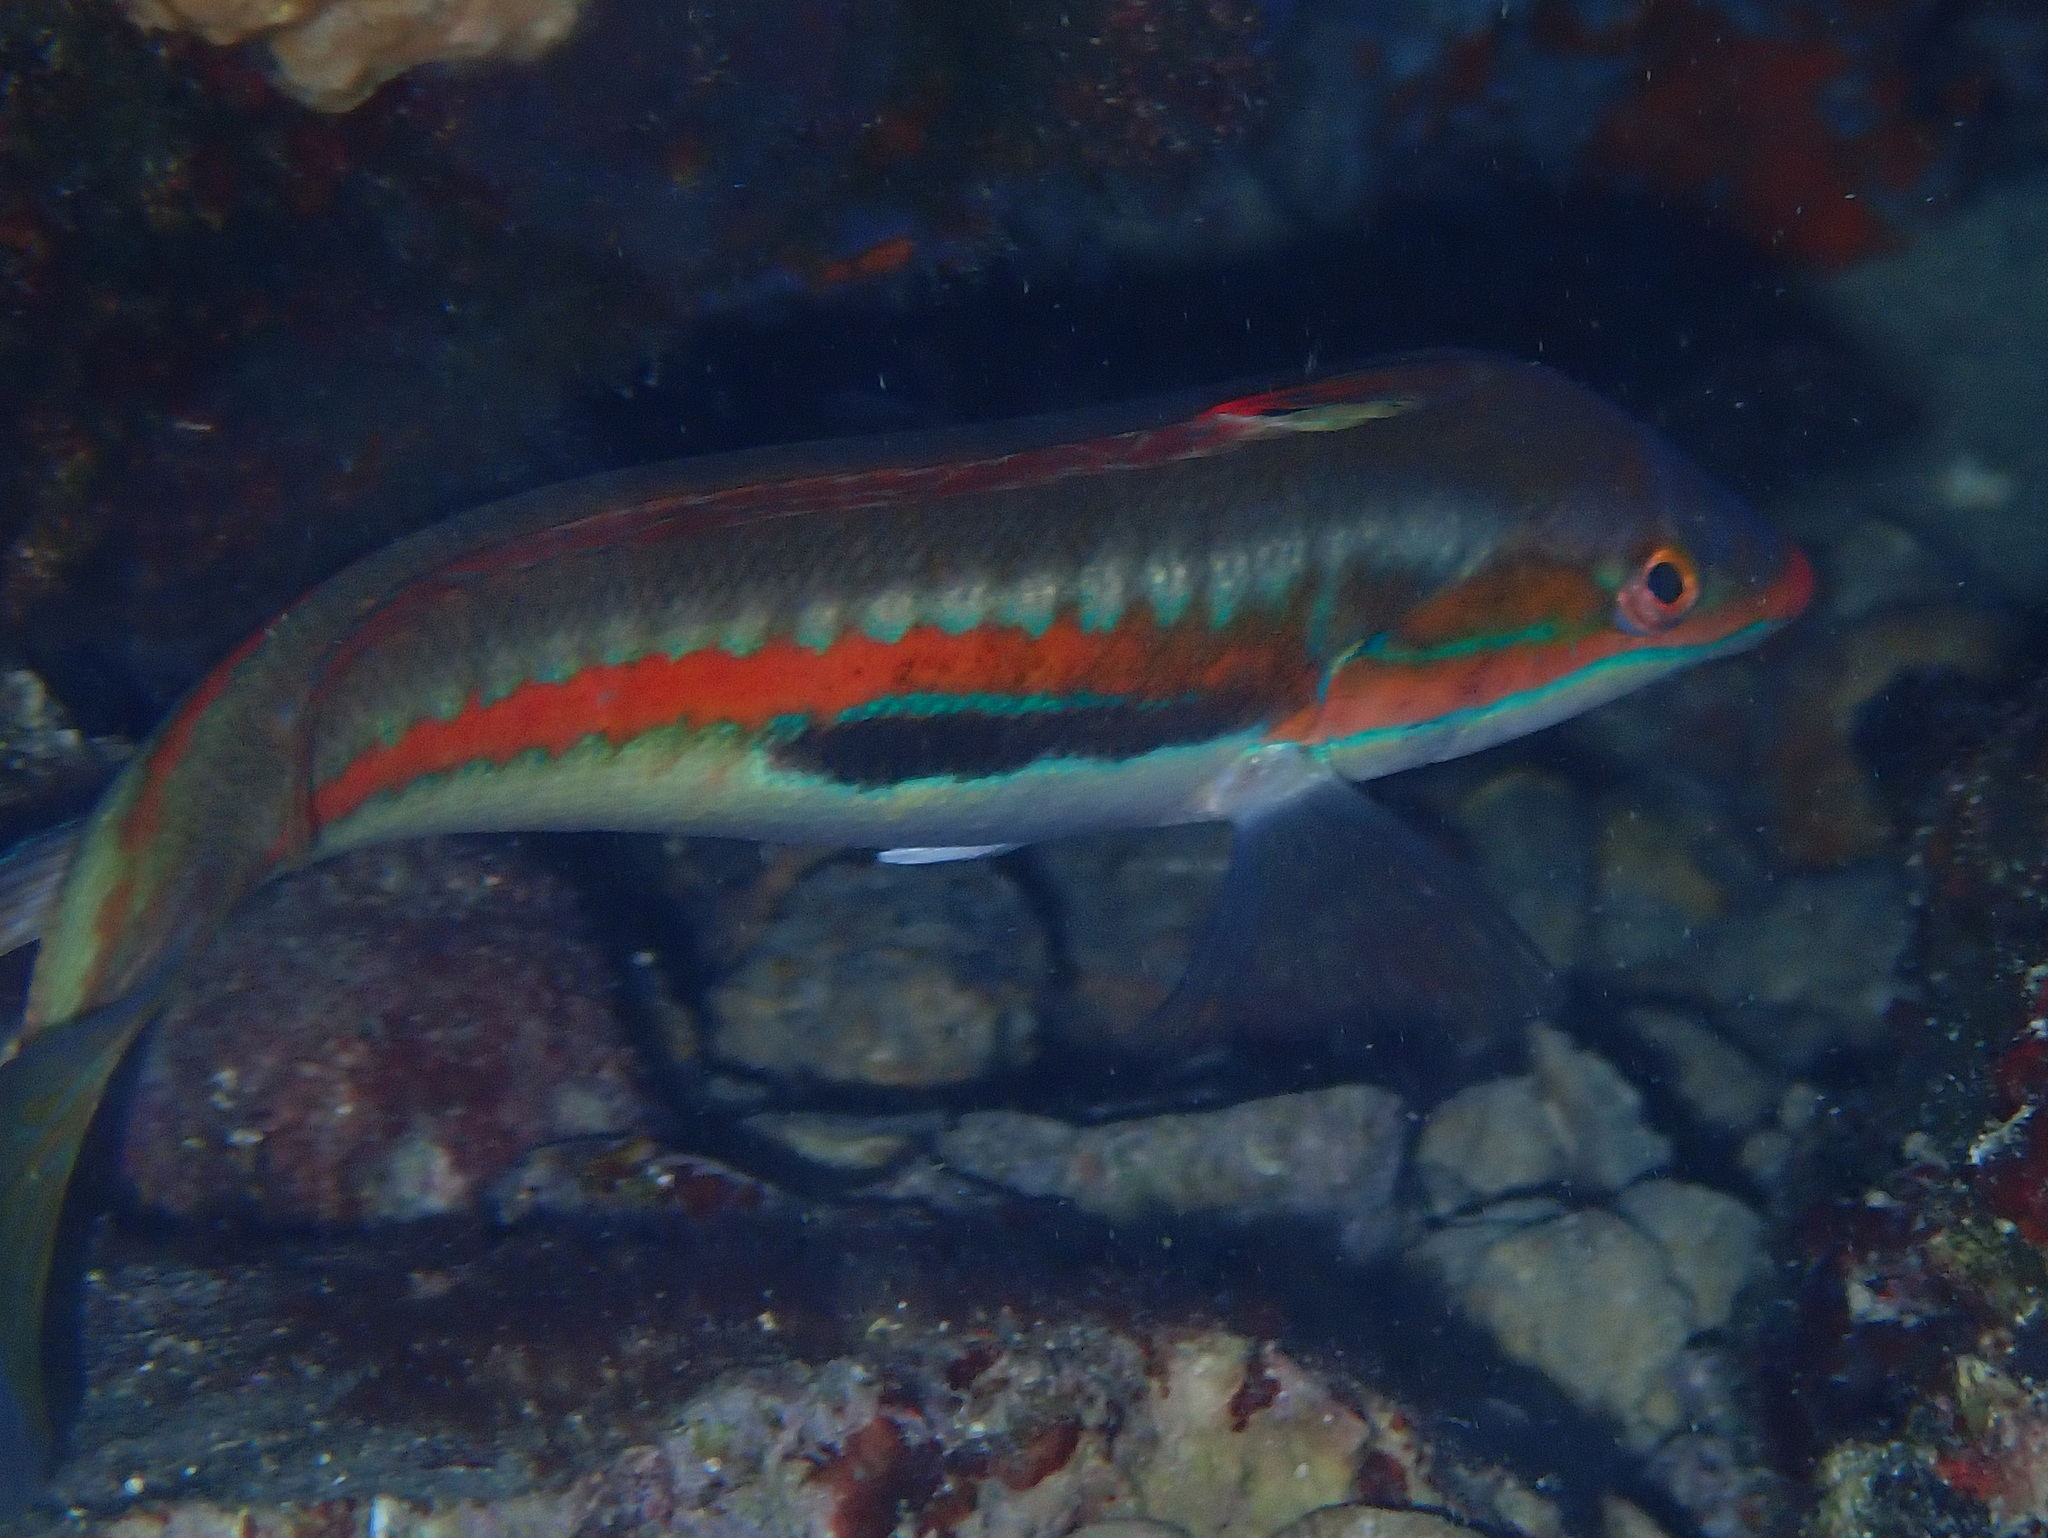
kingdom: Animalia
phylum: Chordata
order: Perciformes
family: Labridae
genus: Coris
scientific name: Coris julis
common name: Rainbow wrasse
